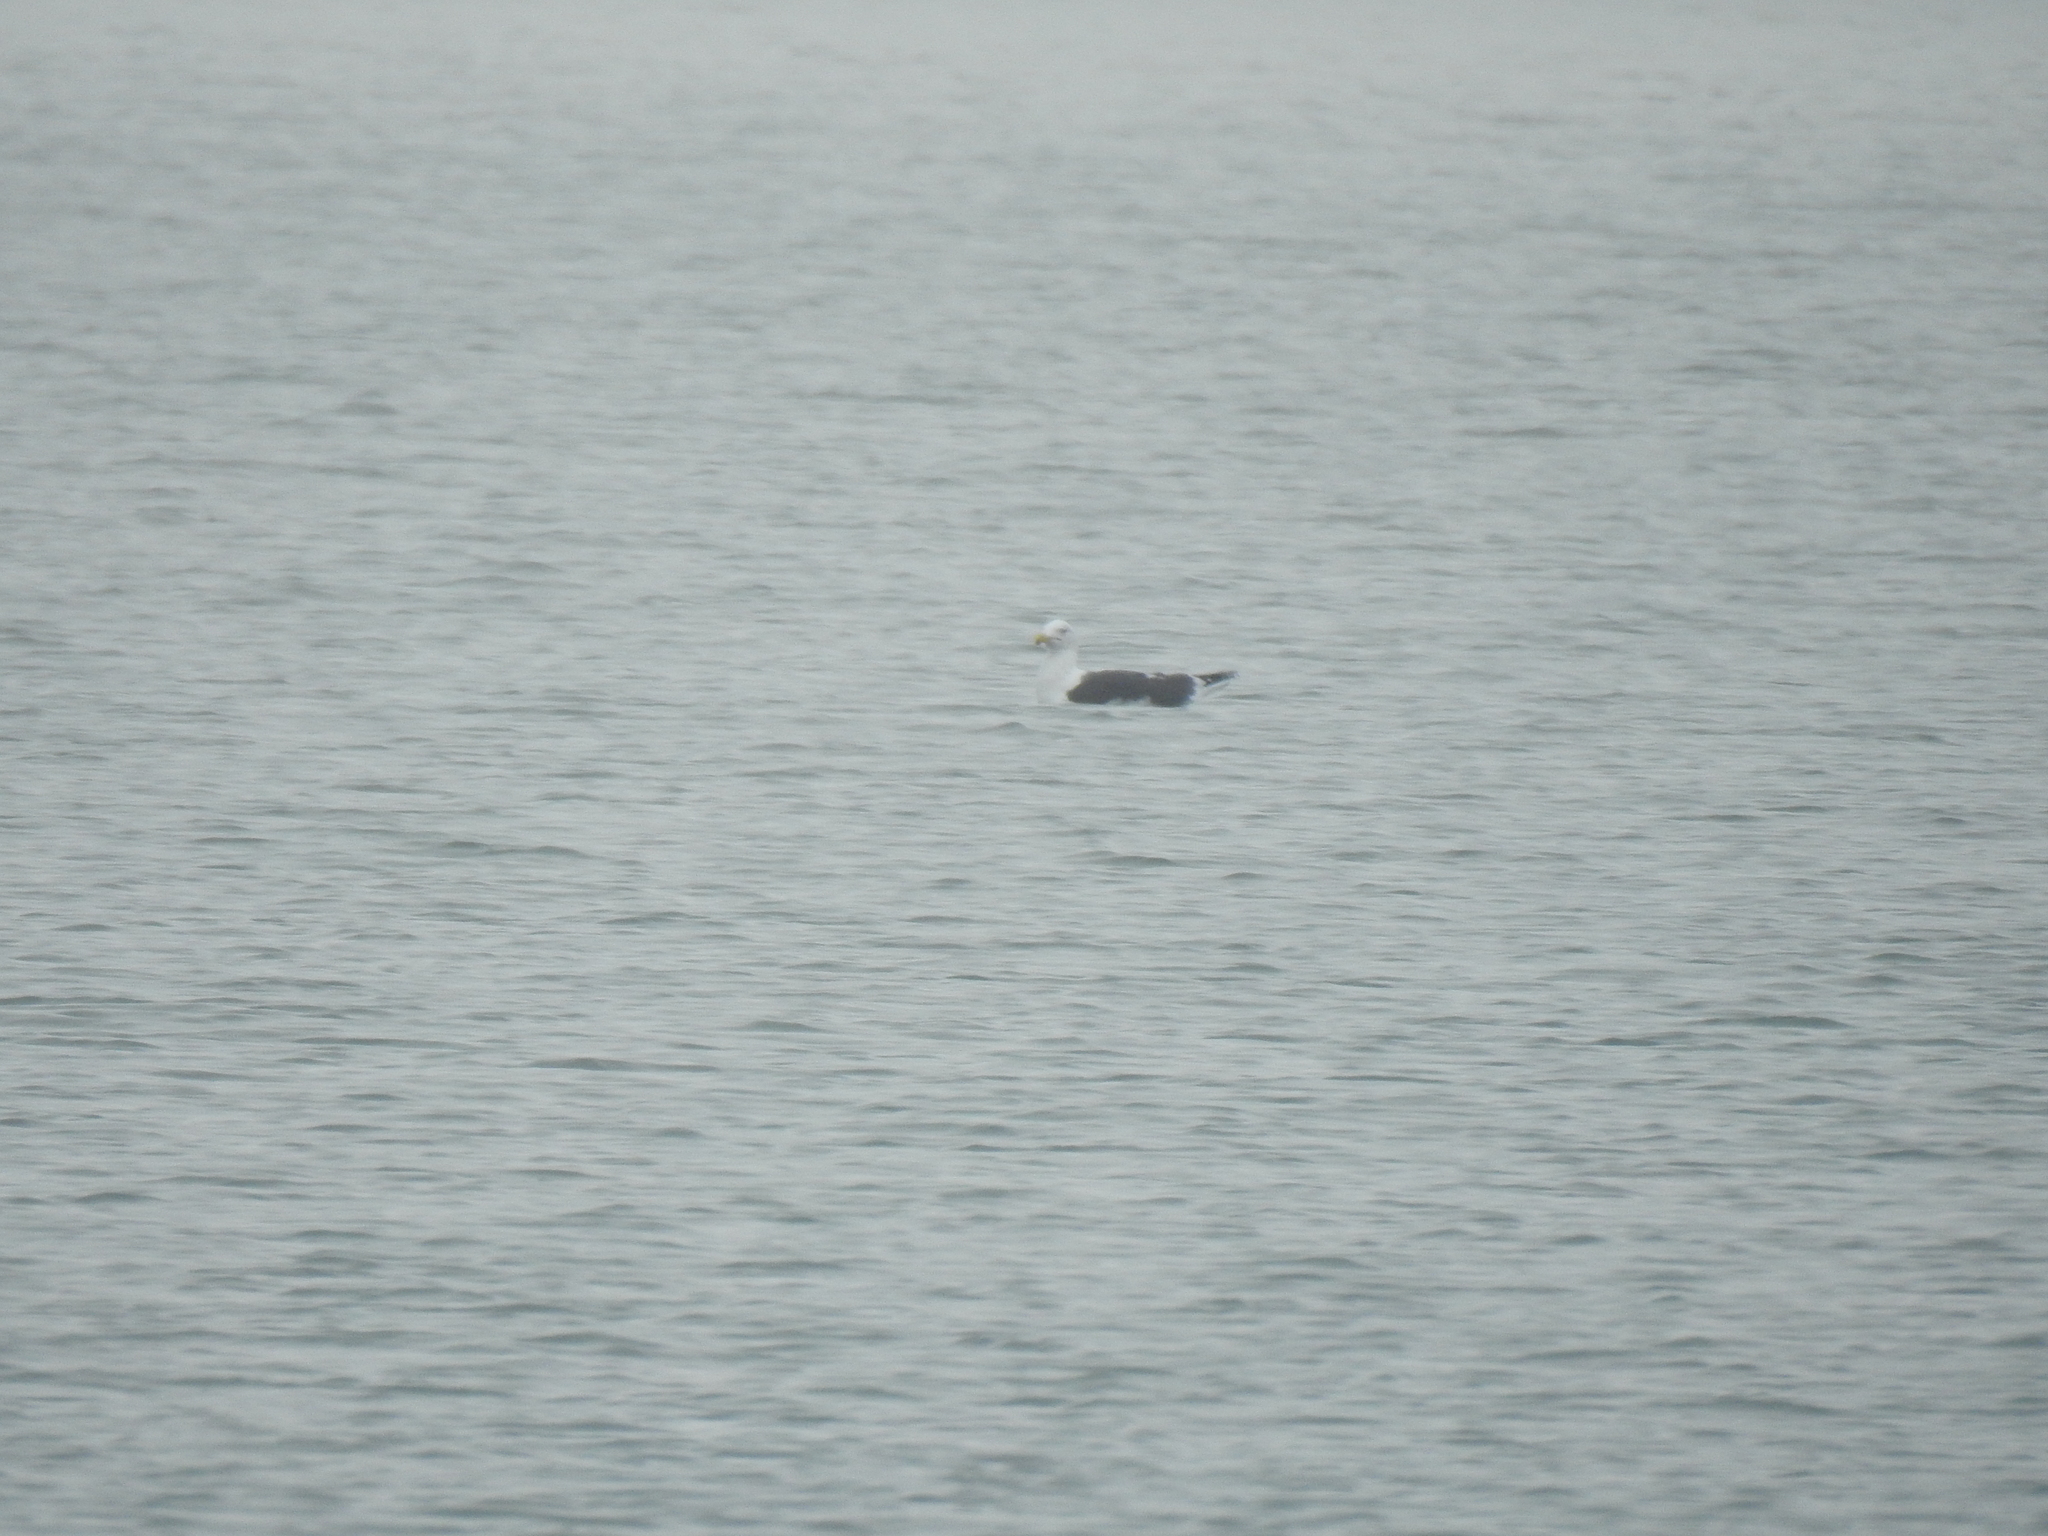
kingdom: Animalia
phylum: Chordata
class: Aves
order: Charadriiformes
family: Laridae
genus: Larus
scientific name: Larus marinus
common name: Great black-backed gull
